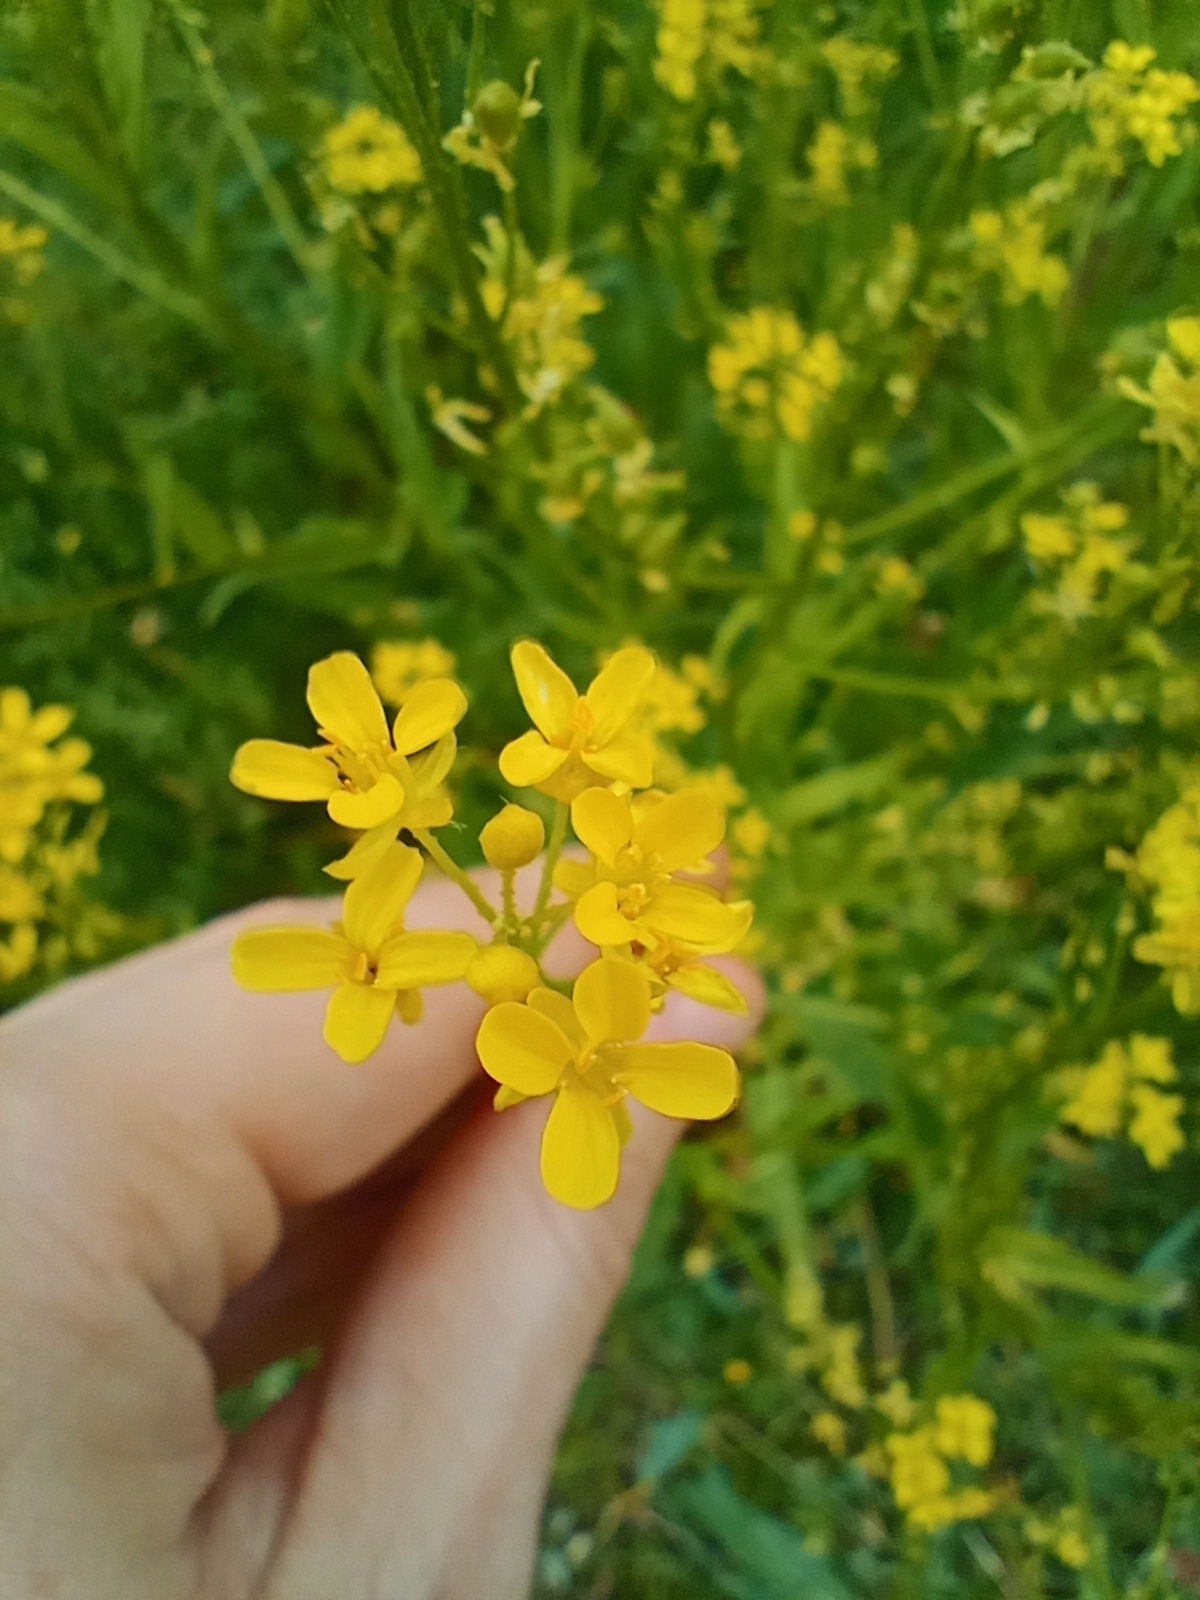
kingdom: Plantae
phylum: Tracheophyta
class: Magnoliopsida
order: Brassicales
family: Brassicaceae
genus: Bunias
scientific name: Bunias orientalis
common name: Warty-cabbage
